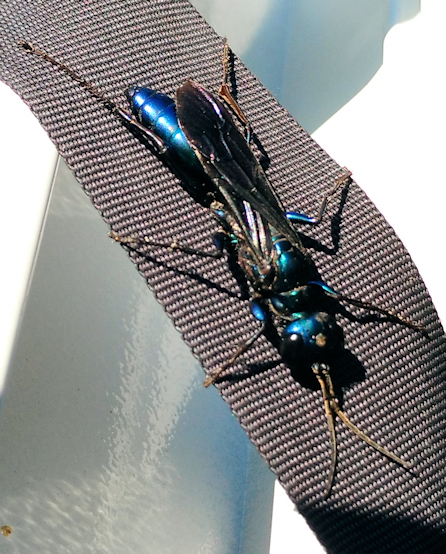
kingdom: Animalia
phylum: Arthropoda
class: Insecta
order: Hymenoptera
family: Sphecidae
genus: Chlorion
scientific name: Chlorion aerarium
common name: Steel-blue cricket hunter
